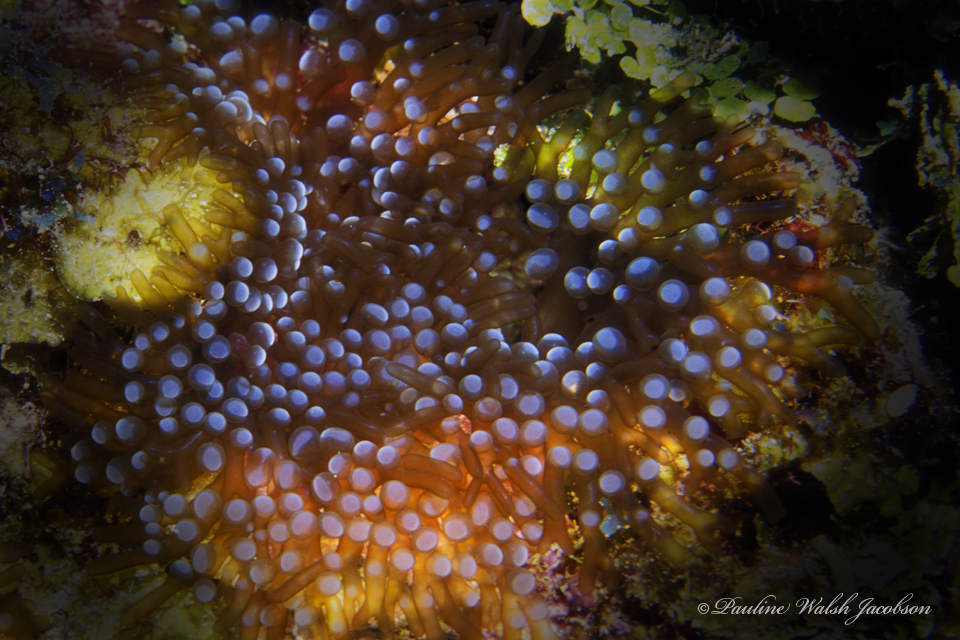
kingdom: Animalia
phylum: Cnidaria
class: Anthozoa
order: Actiniaria
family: Aliciidae
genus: Lebrunia
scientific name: Lebrunia neglecta
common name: Branching anemone
